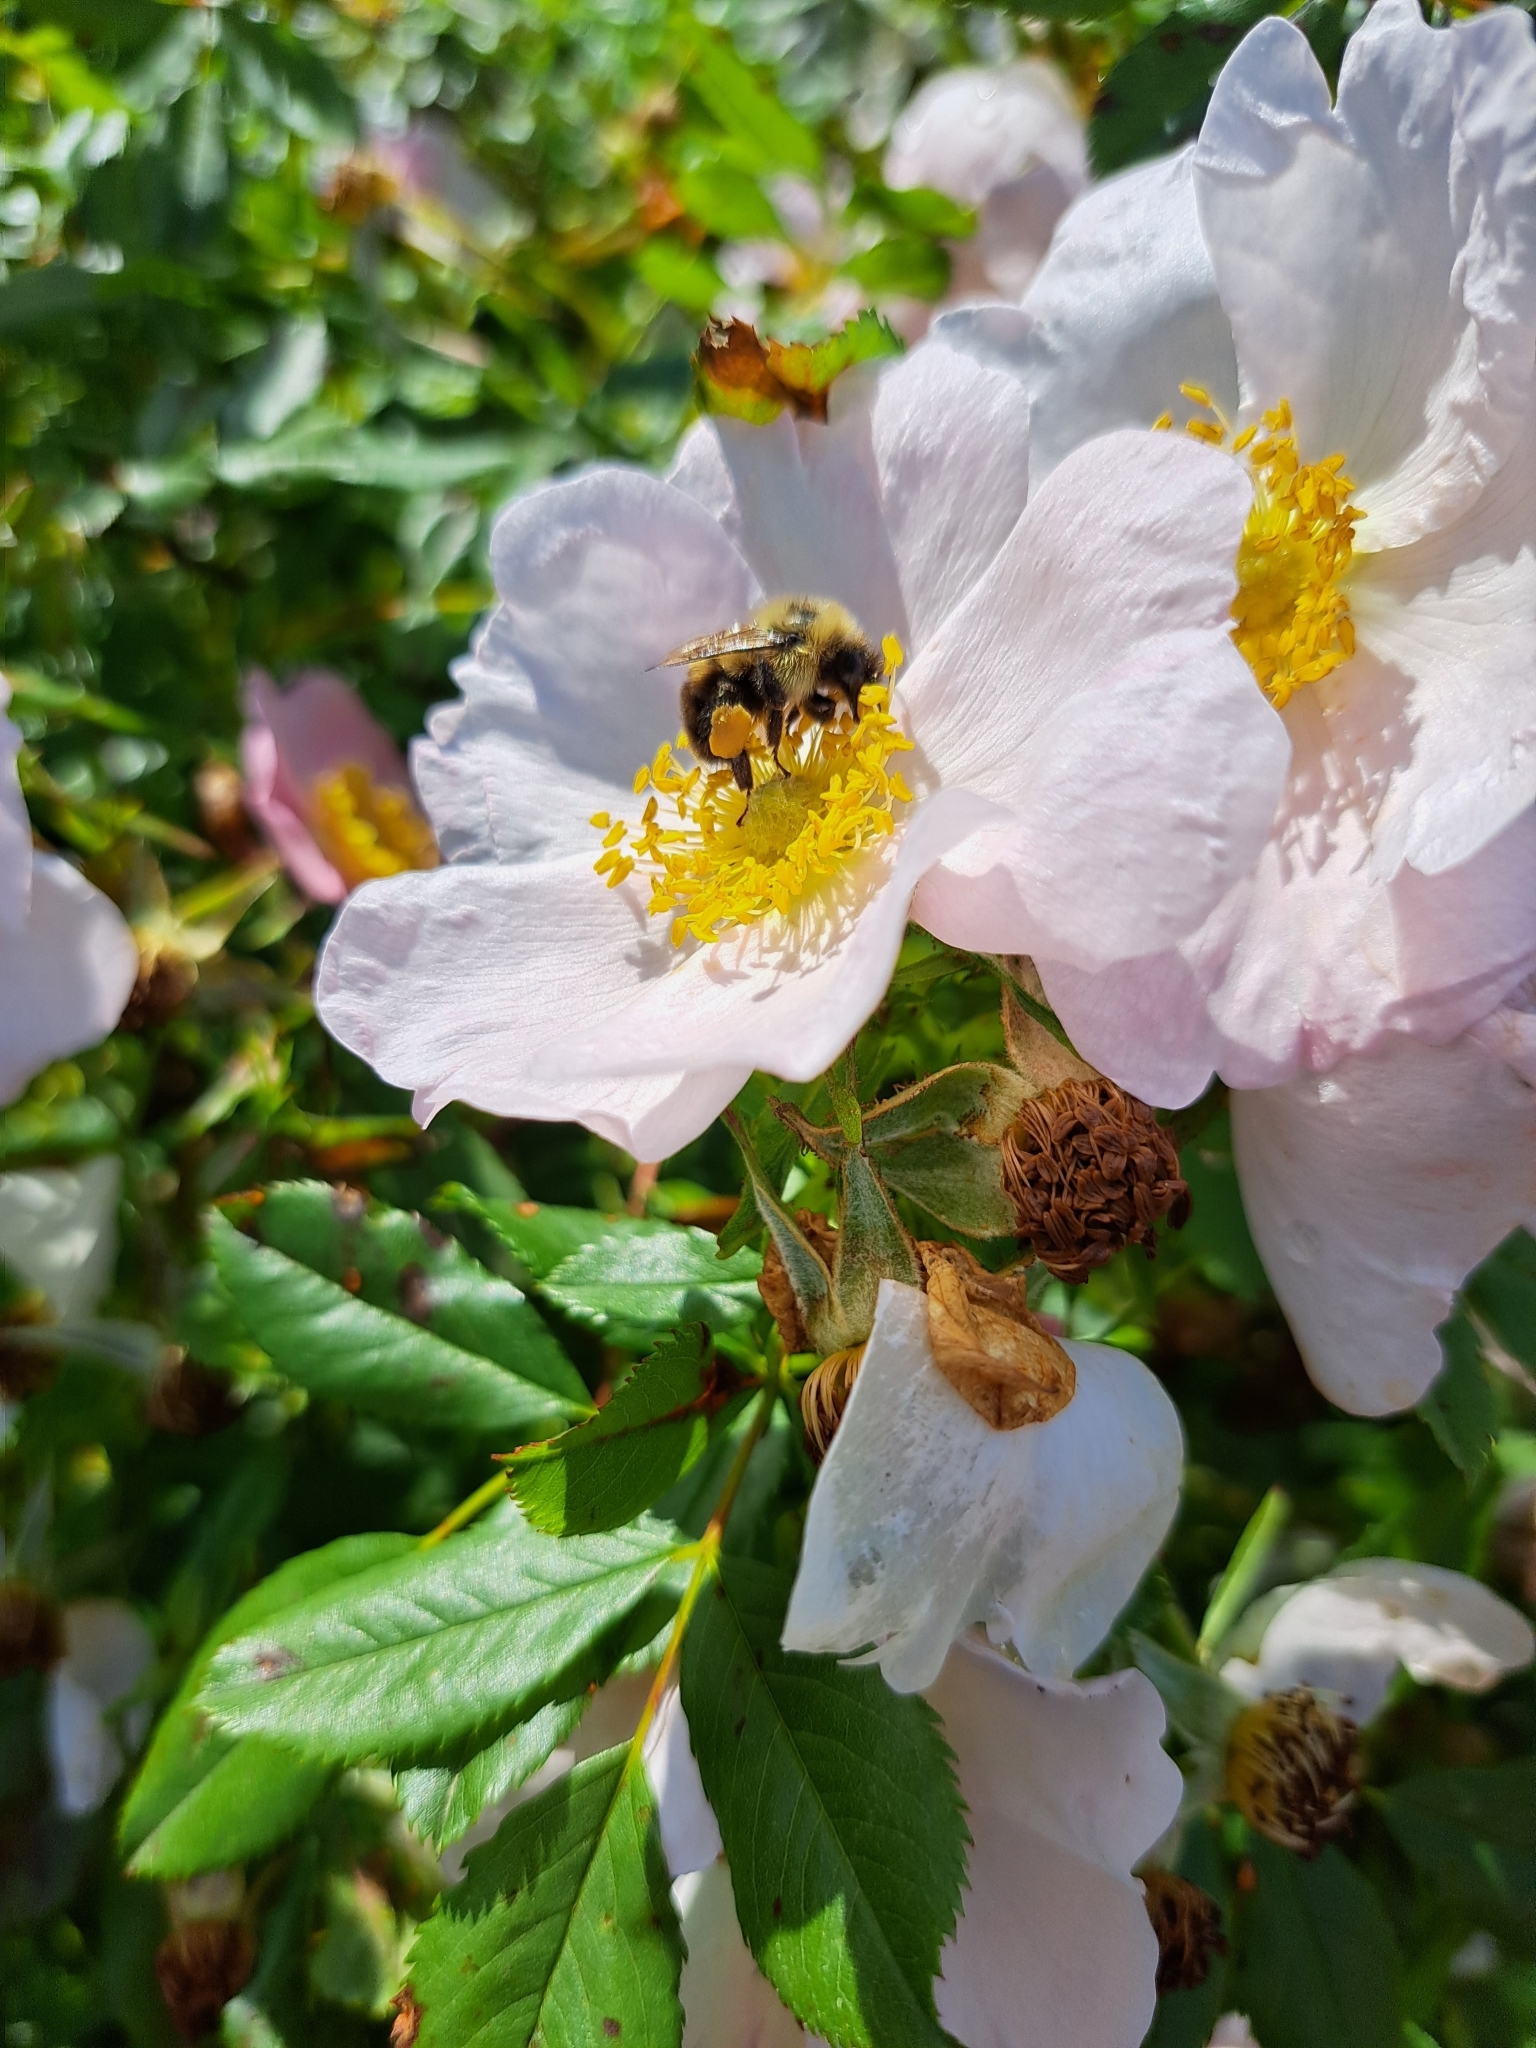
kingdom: Animalia
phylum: Arthropoda
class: Insecta
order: Hymenoptera
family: Apidae
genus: Bombus
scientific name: Bombus bimaculatus
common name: Two-spotted bumble bee
